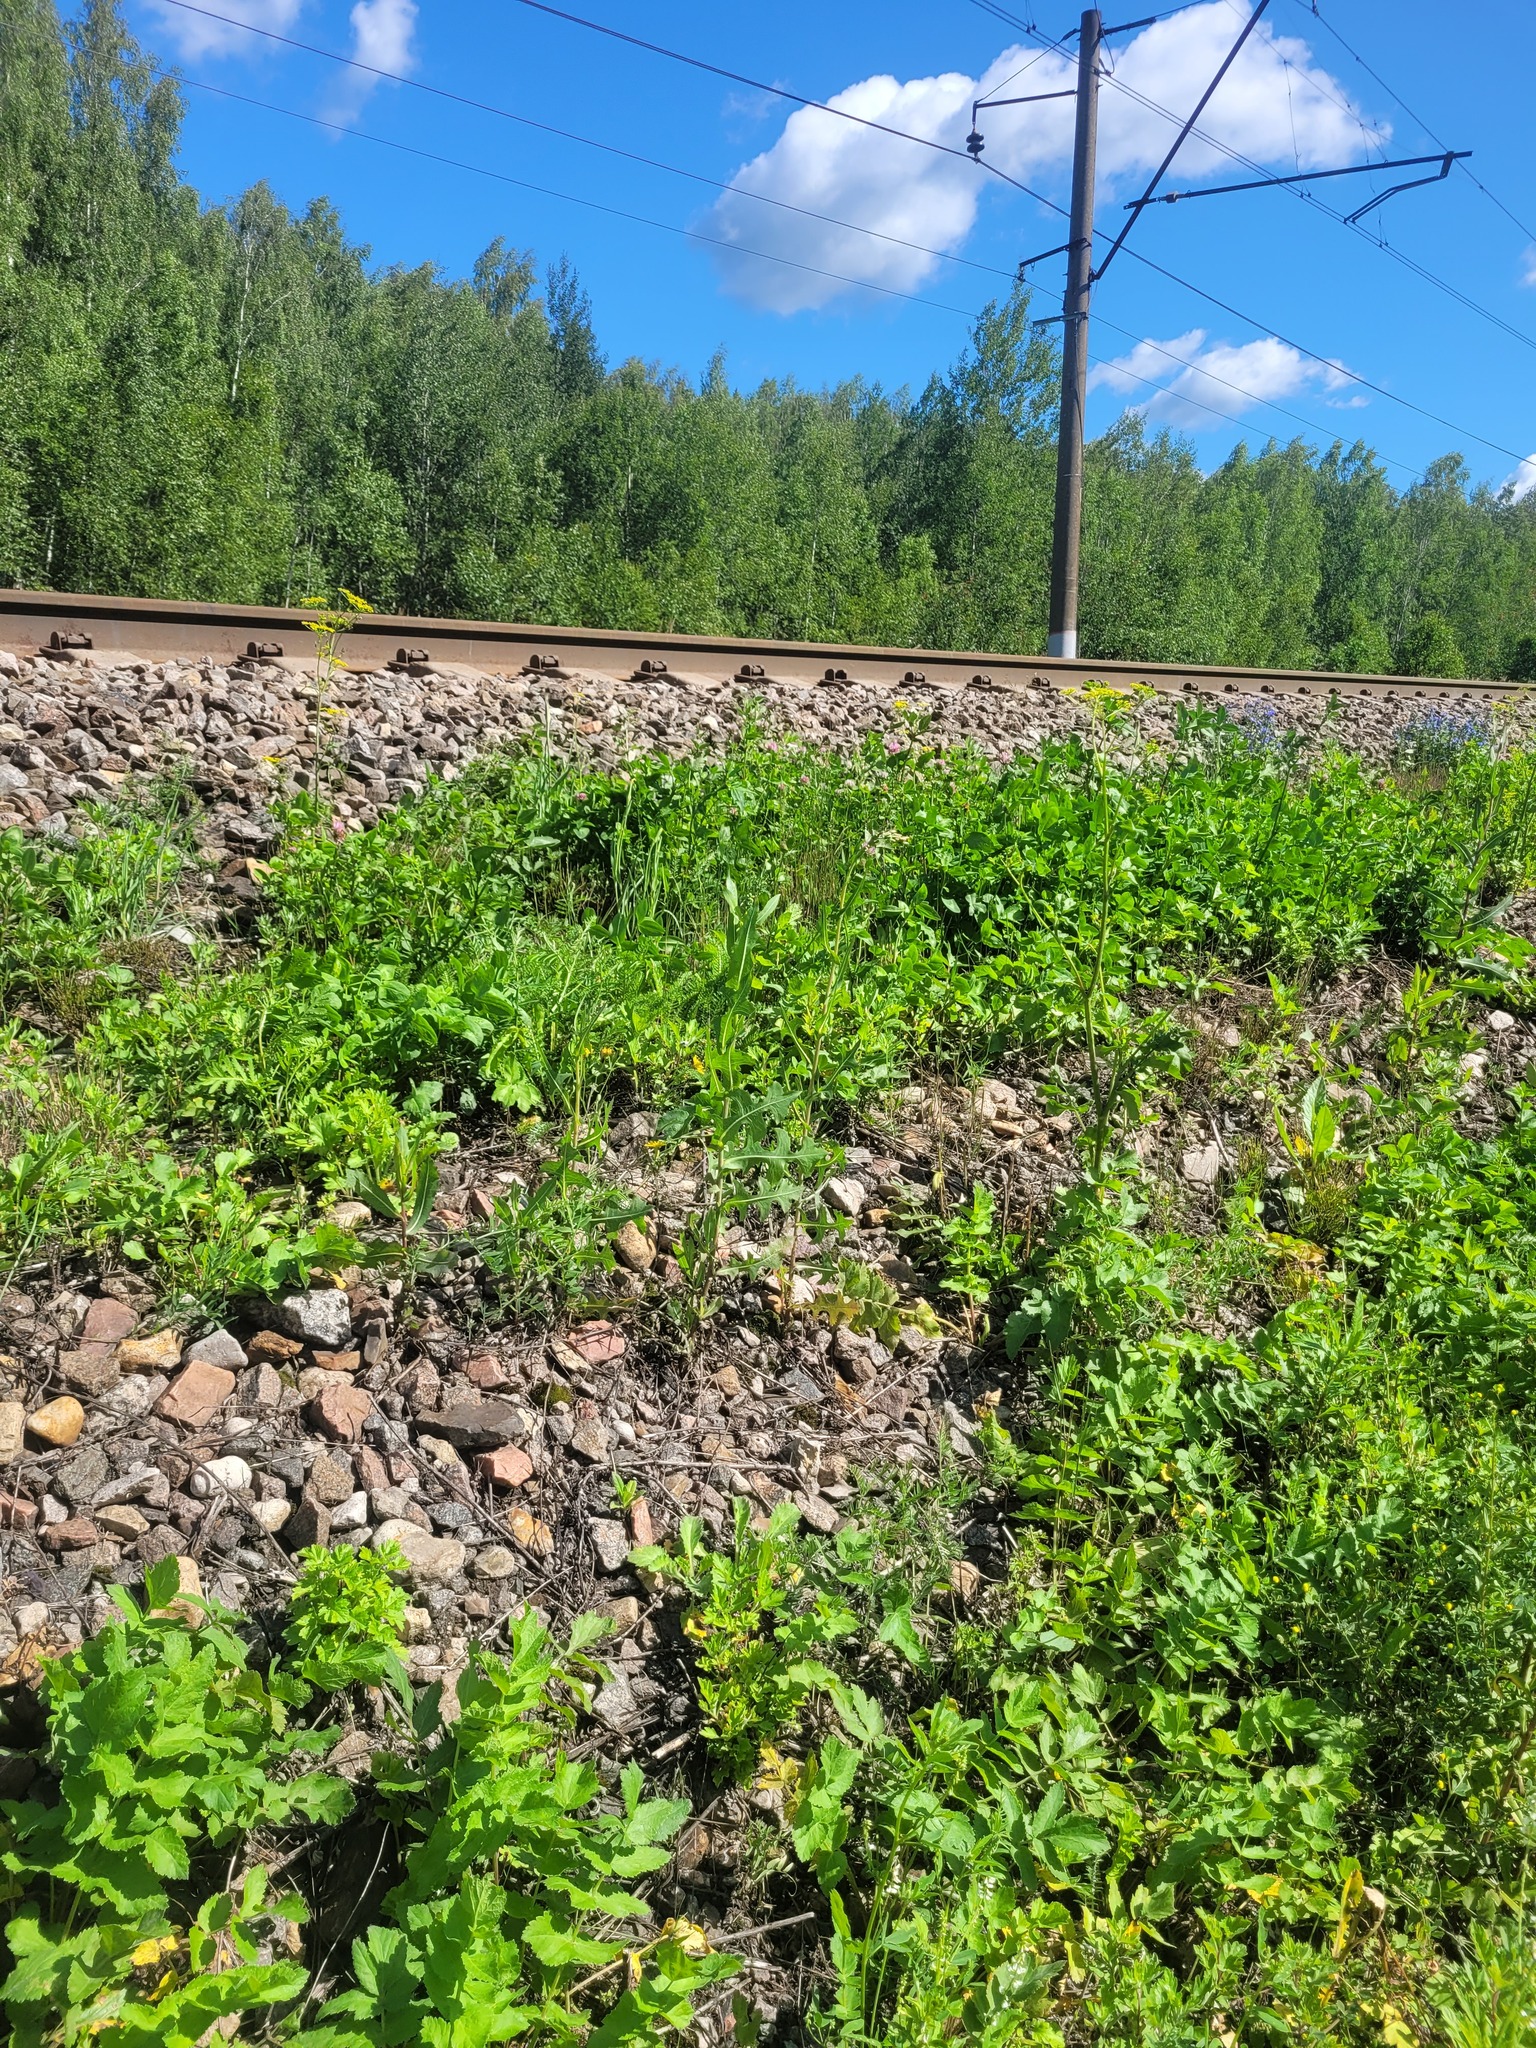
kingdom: Plantae
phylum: Tracheophyta
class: Magnoliopsida
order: Asterales
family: Asteraceae
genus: Lactuca
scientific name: Lactuca serriola
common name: Prickly lettuce
